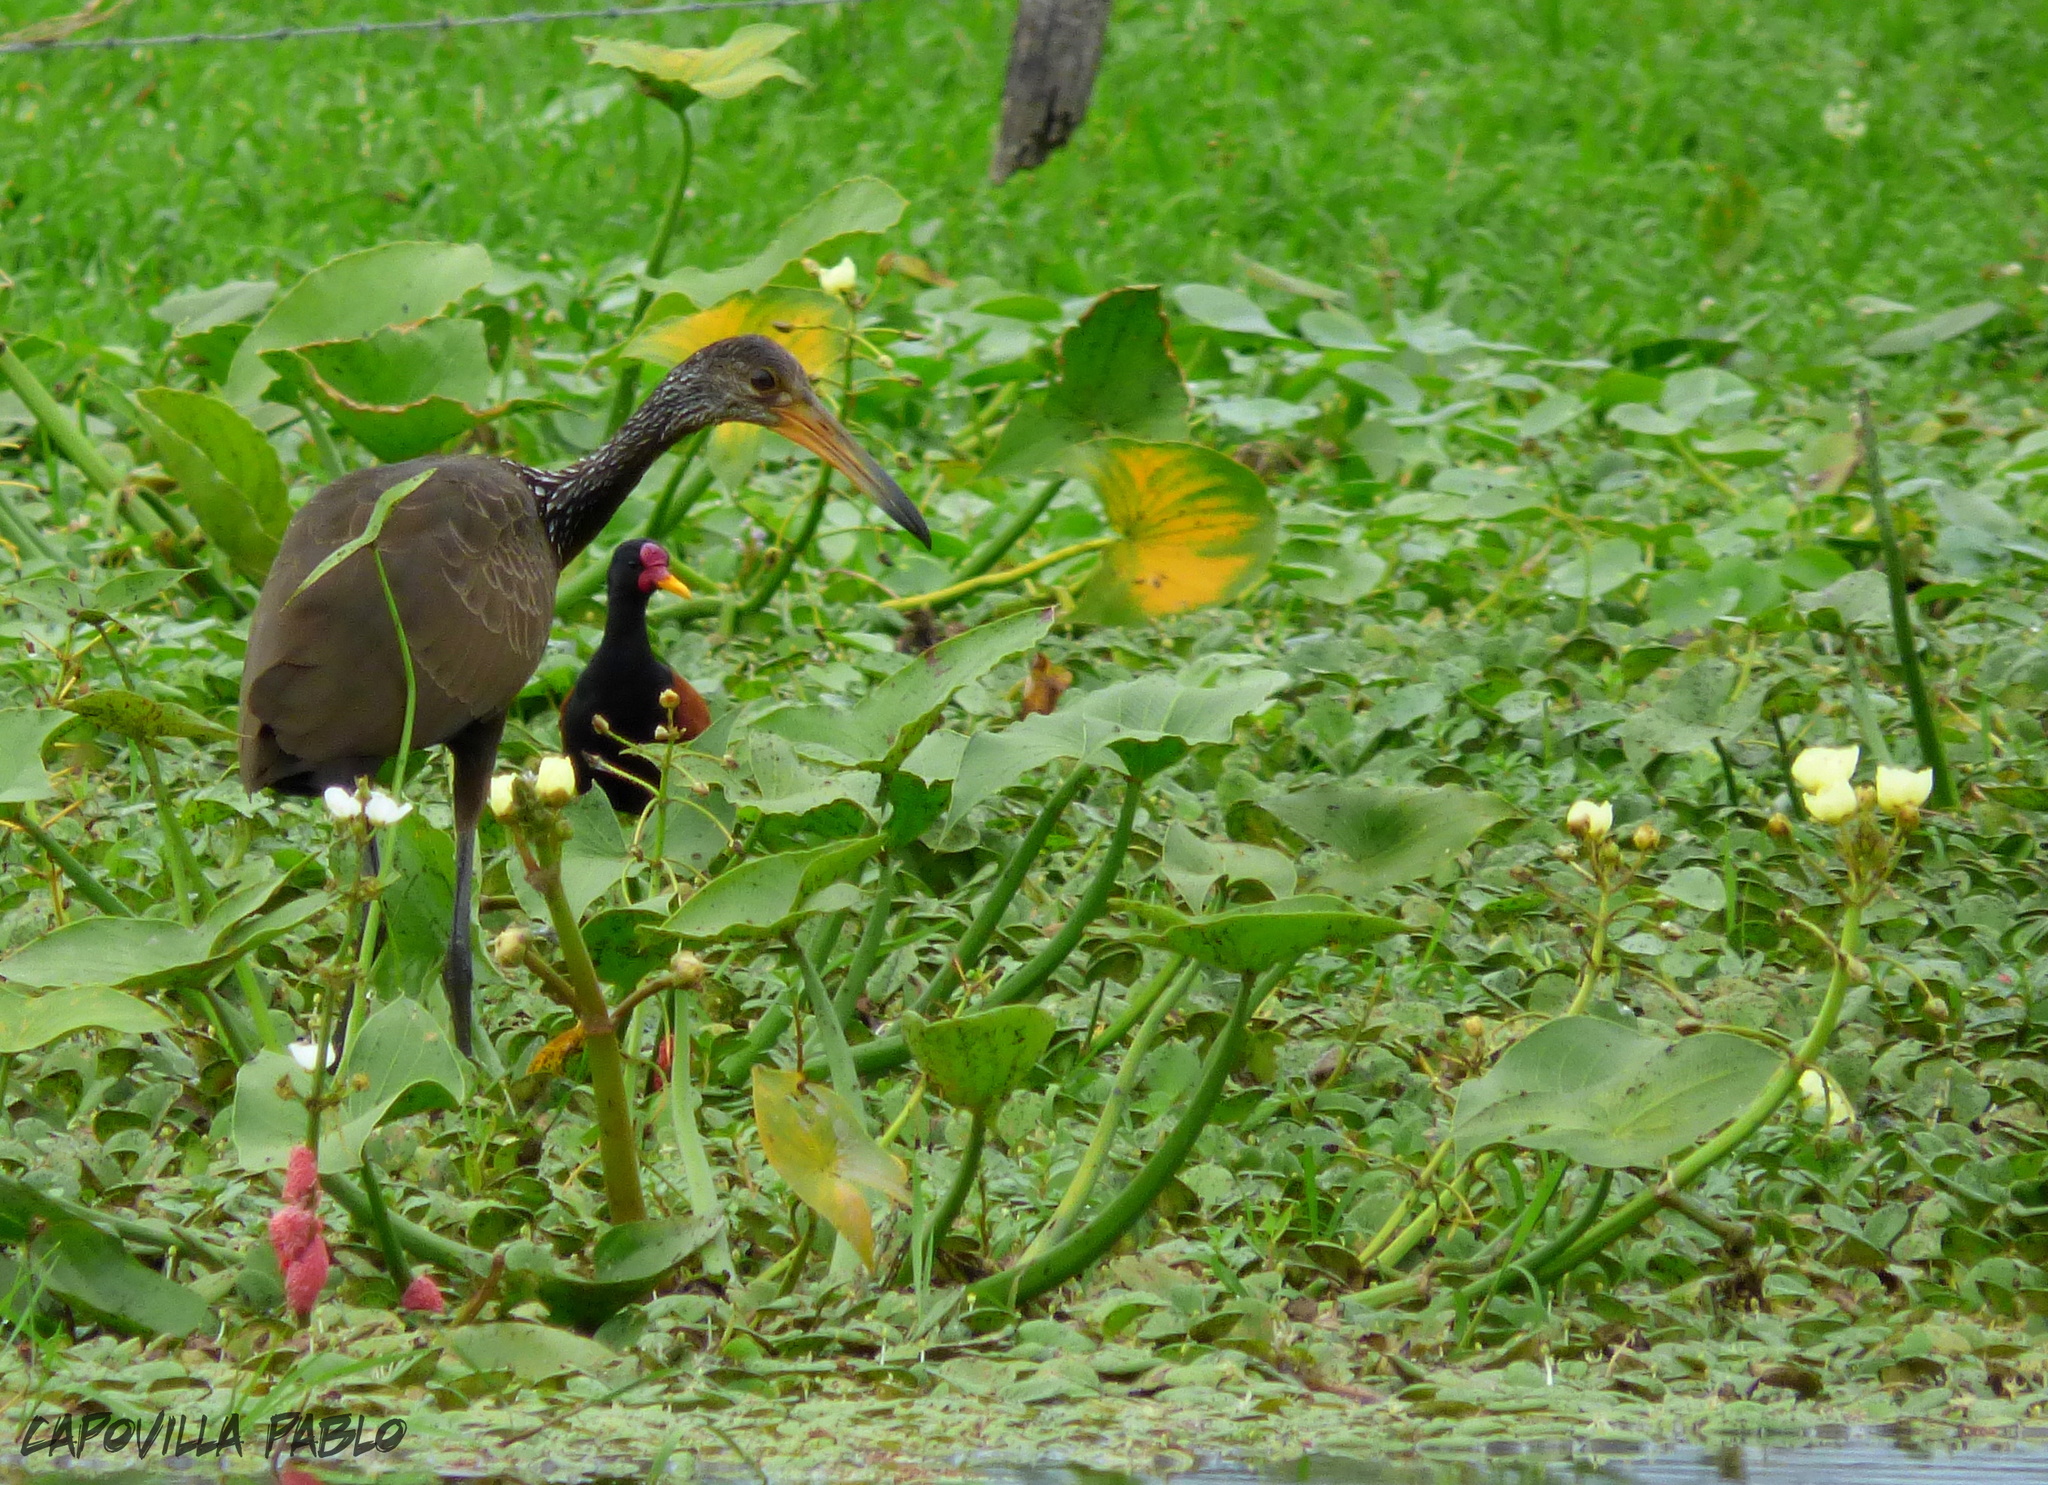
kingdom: Animalia
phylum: Chordata
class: Aves
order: Gruiformes
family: Aramidae
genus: Aramus
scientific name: Aramus guarauna
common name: Limpkin
